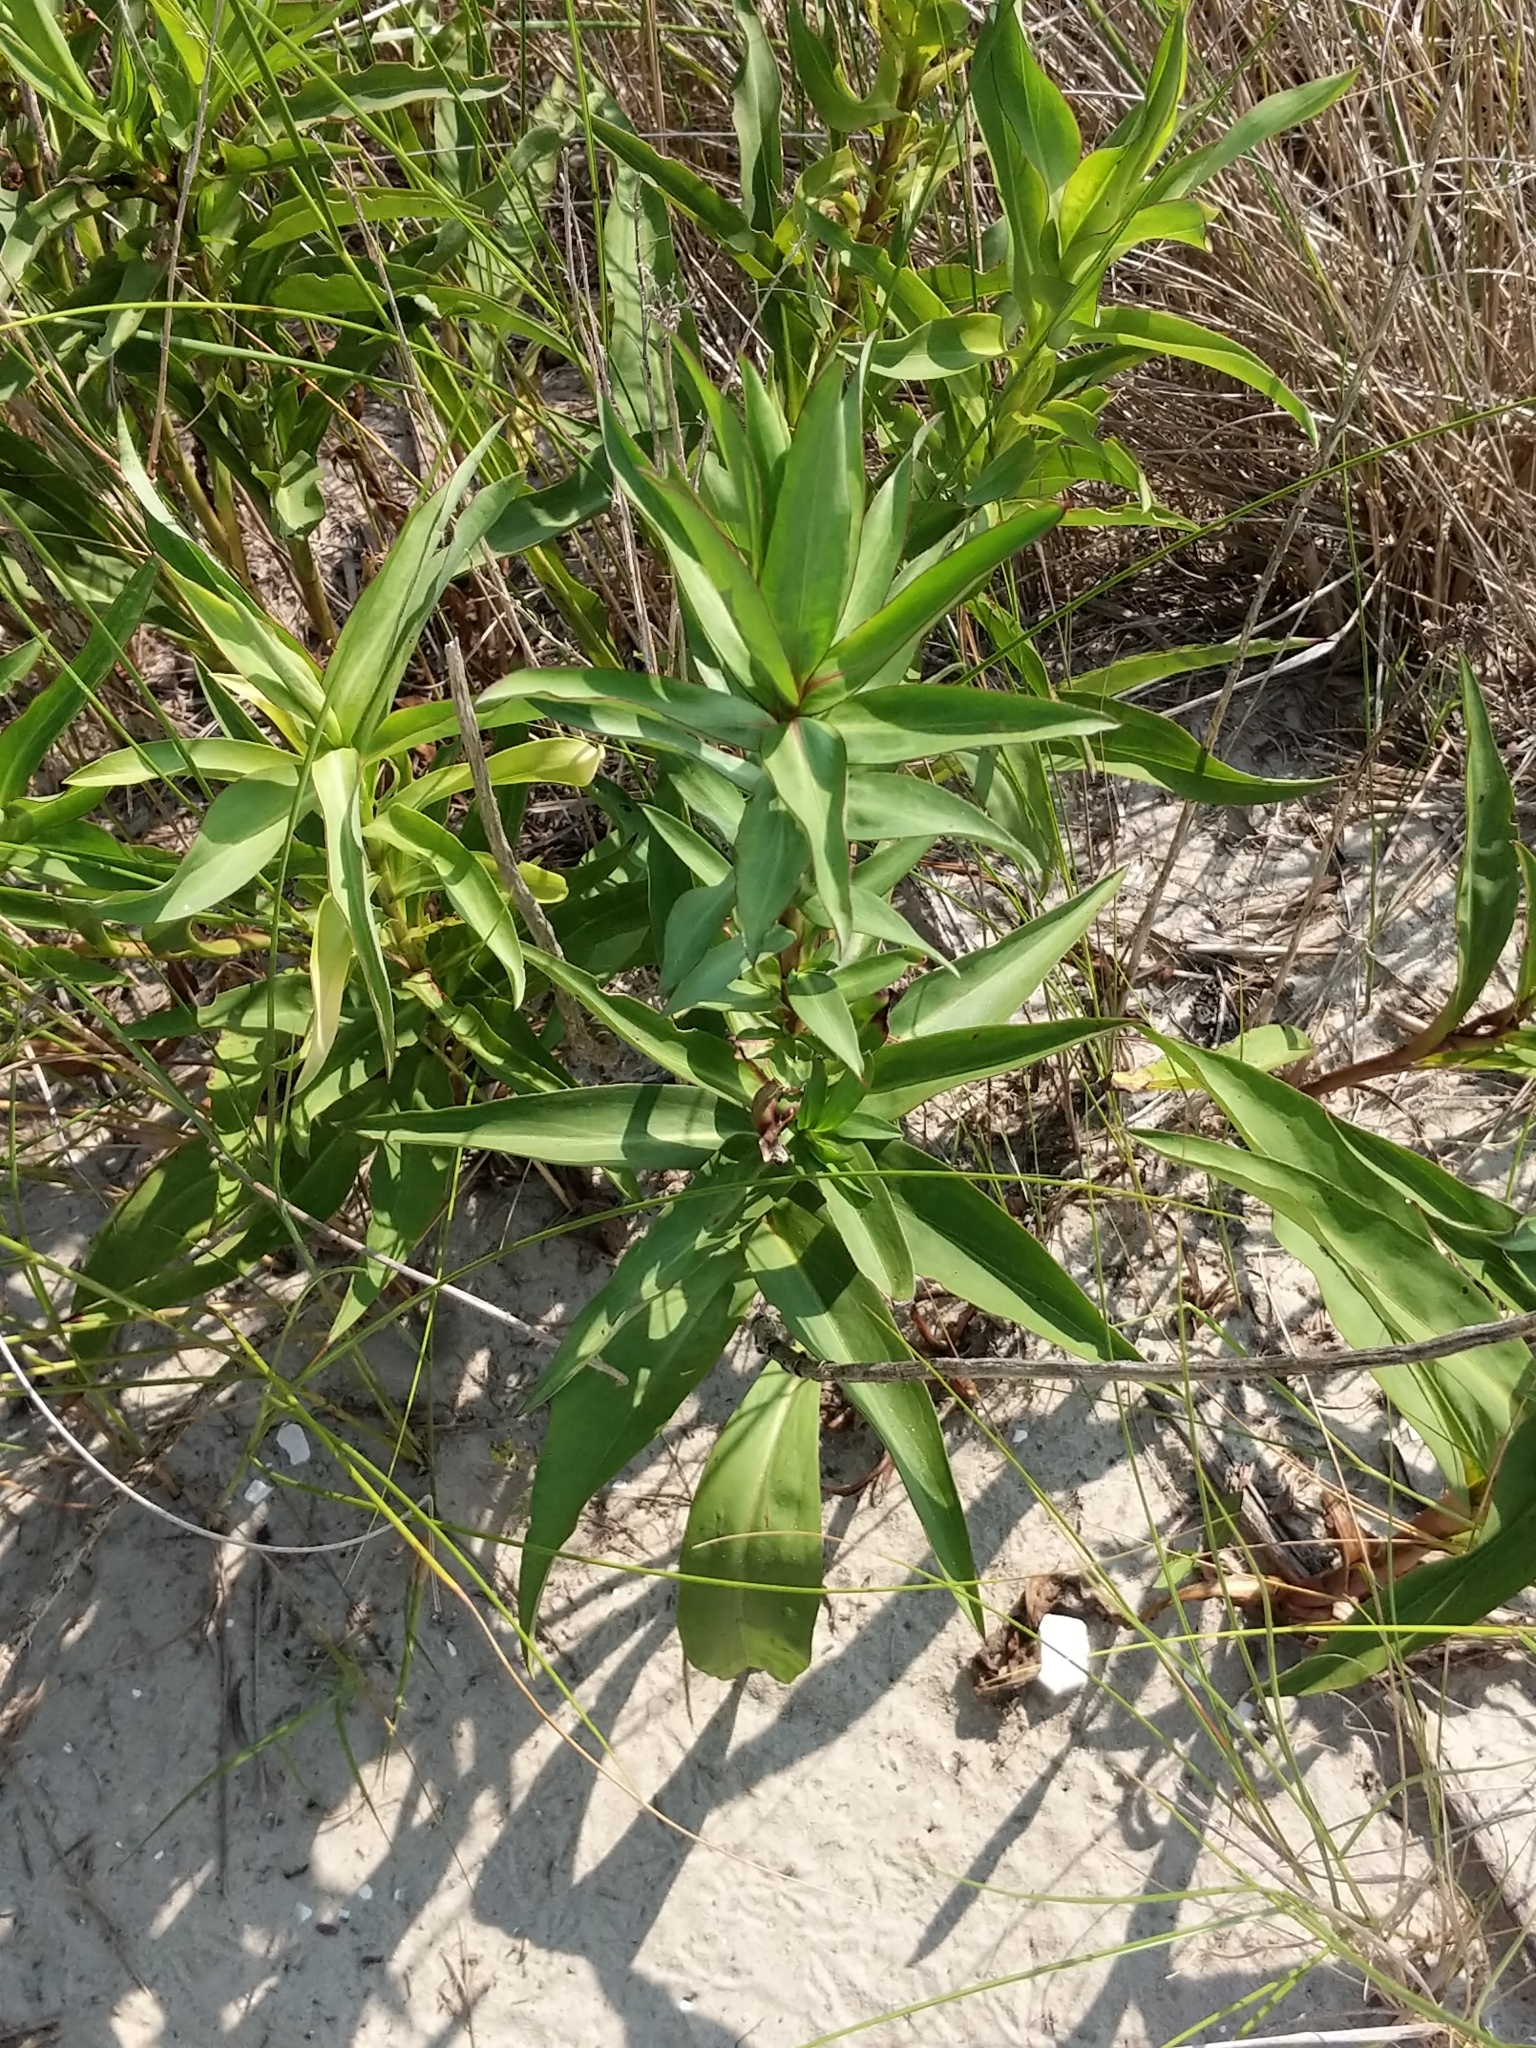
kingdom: Plantae
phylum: Tracheophyta
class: Magnoliopsida
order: Asterales
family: Asteraceae
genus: Solidago
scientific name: Solidago sempervirens
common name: Salt-marsh goldenrod
